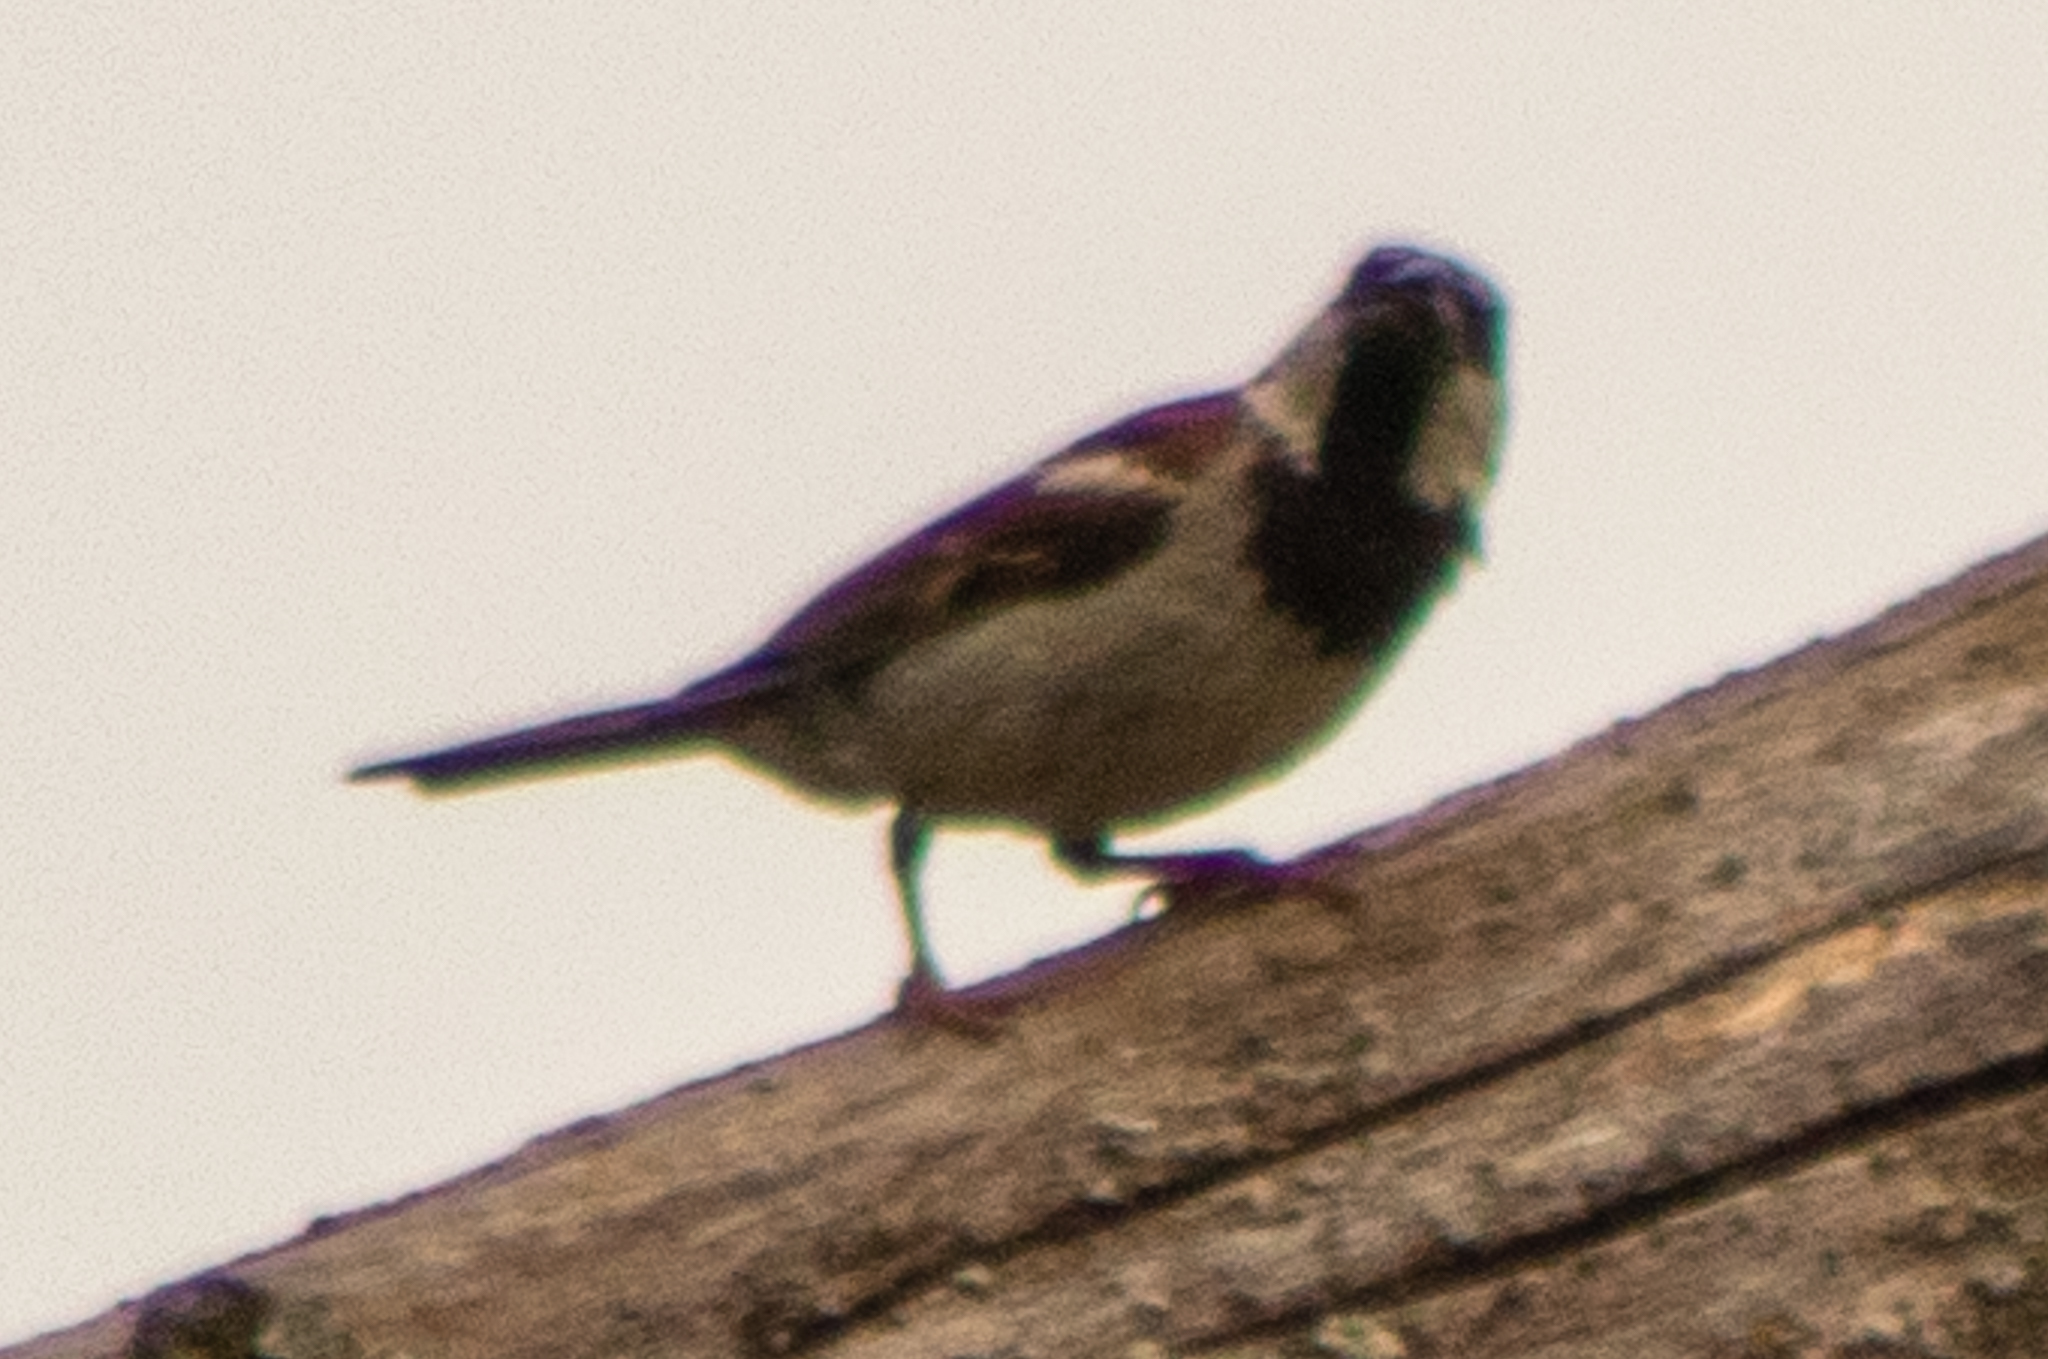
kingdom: Animalia
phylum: Chordata
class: Aves
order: Passeriformes
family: Passeridae
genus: Passer
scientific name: Passer domesticus
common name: House sparrow
